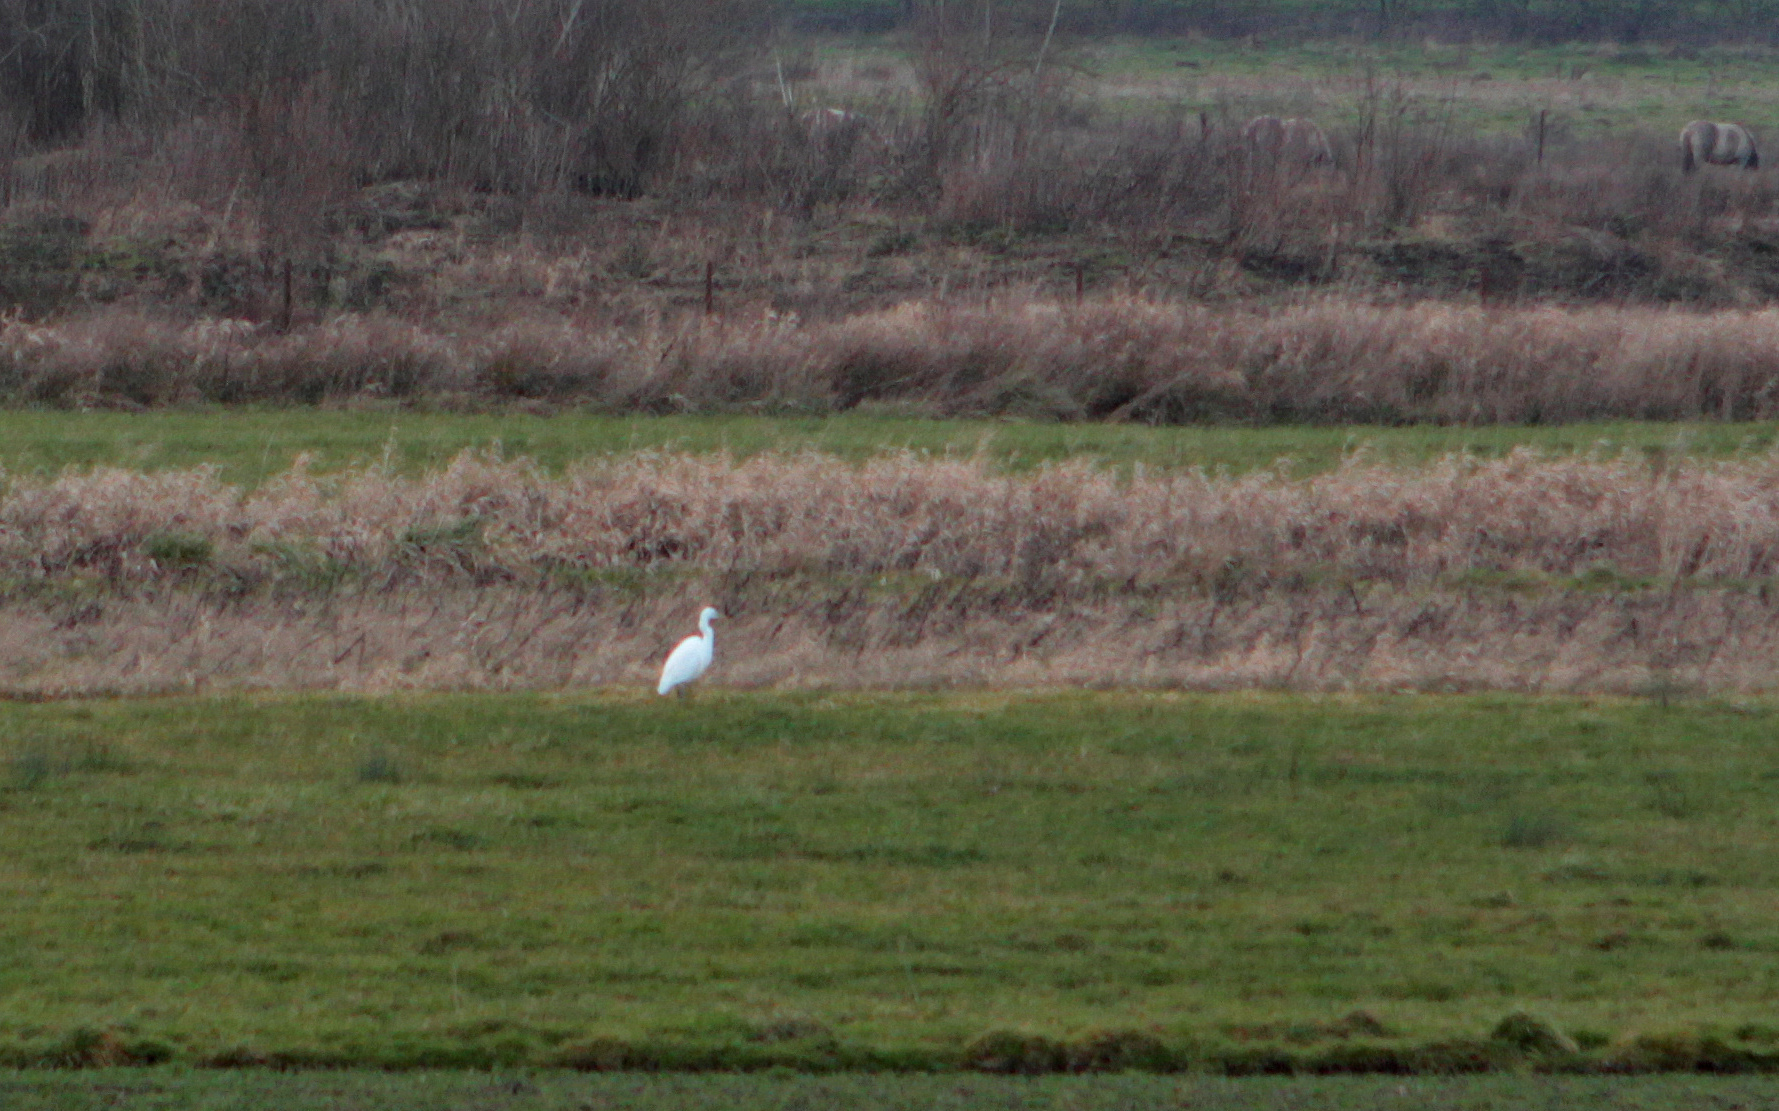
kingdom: Animalia
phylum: Chordata
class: Aves
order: Pelecaniformes
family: Ardeidae
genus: Ardea
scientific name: Ardea alba
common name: Great egret
